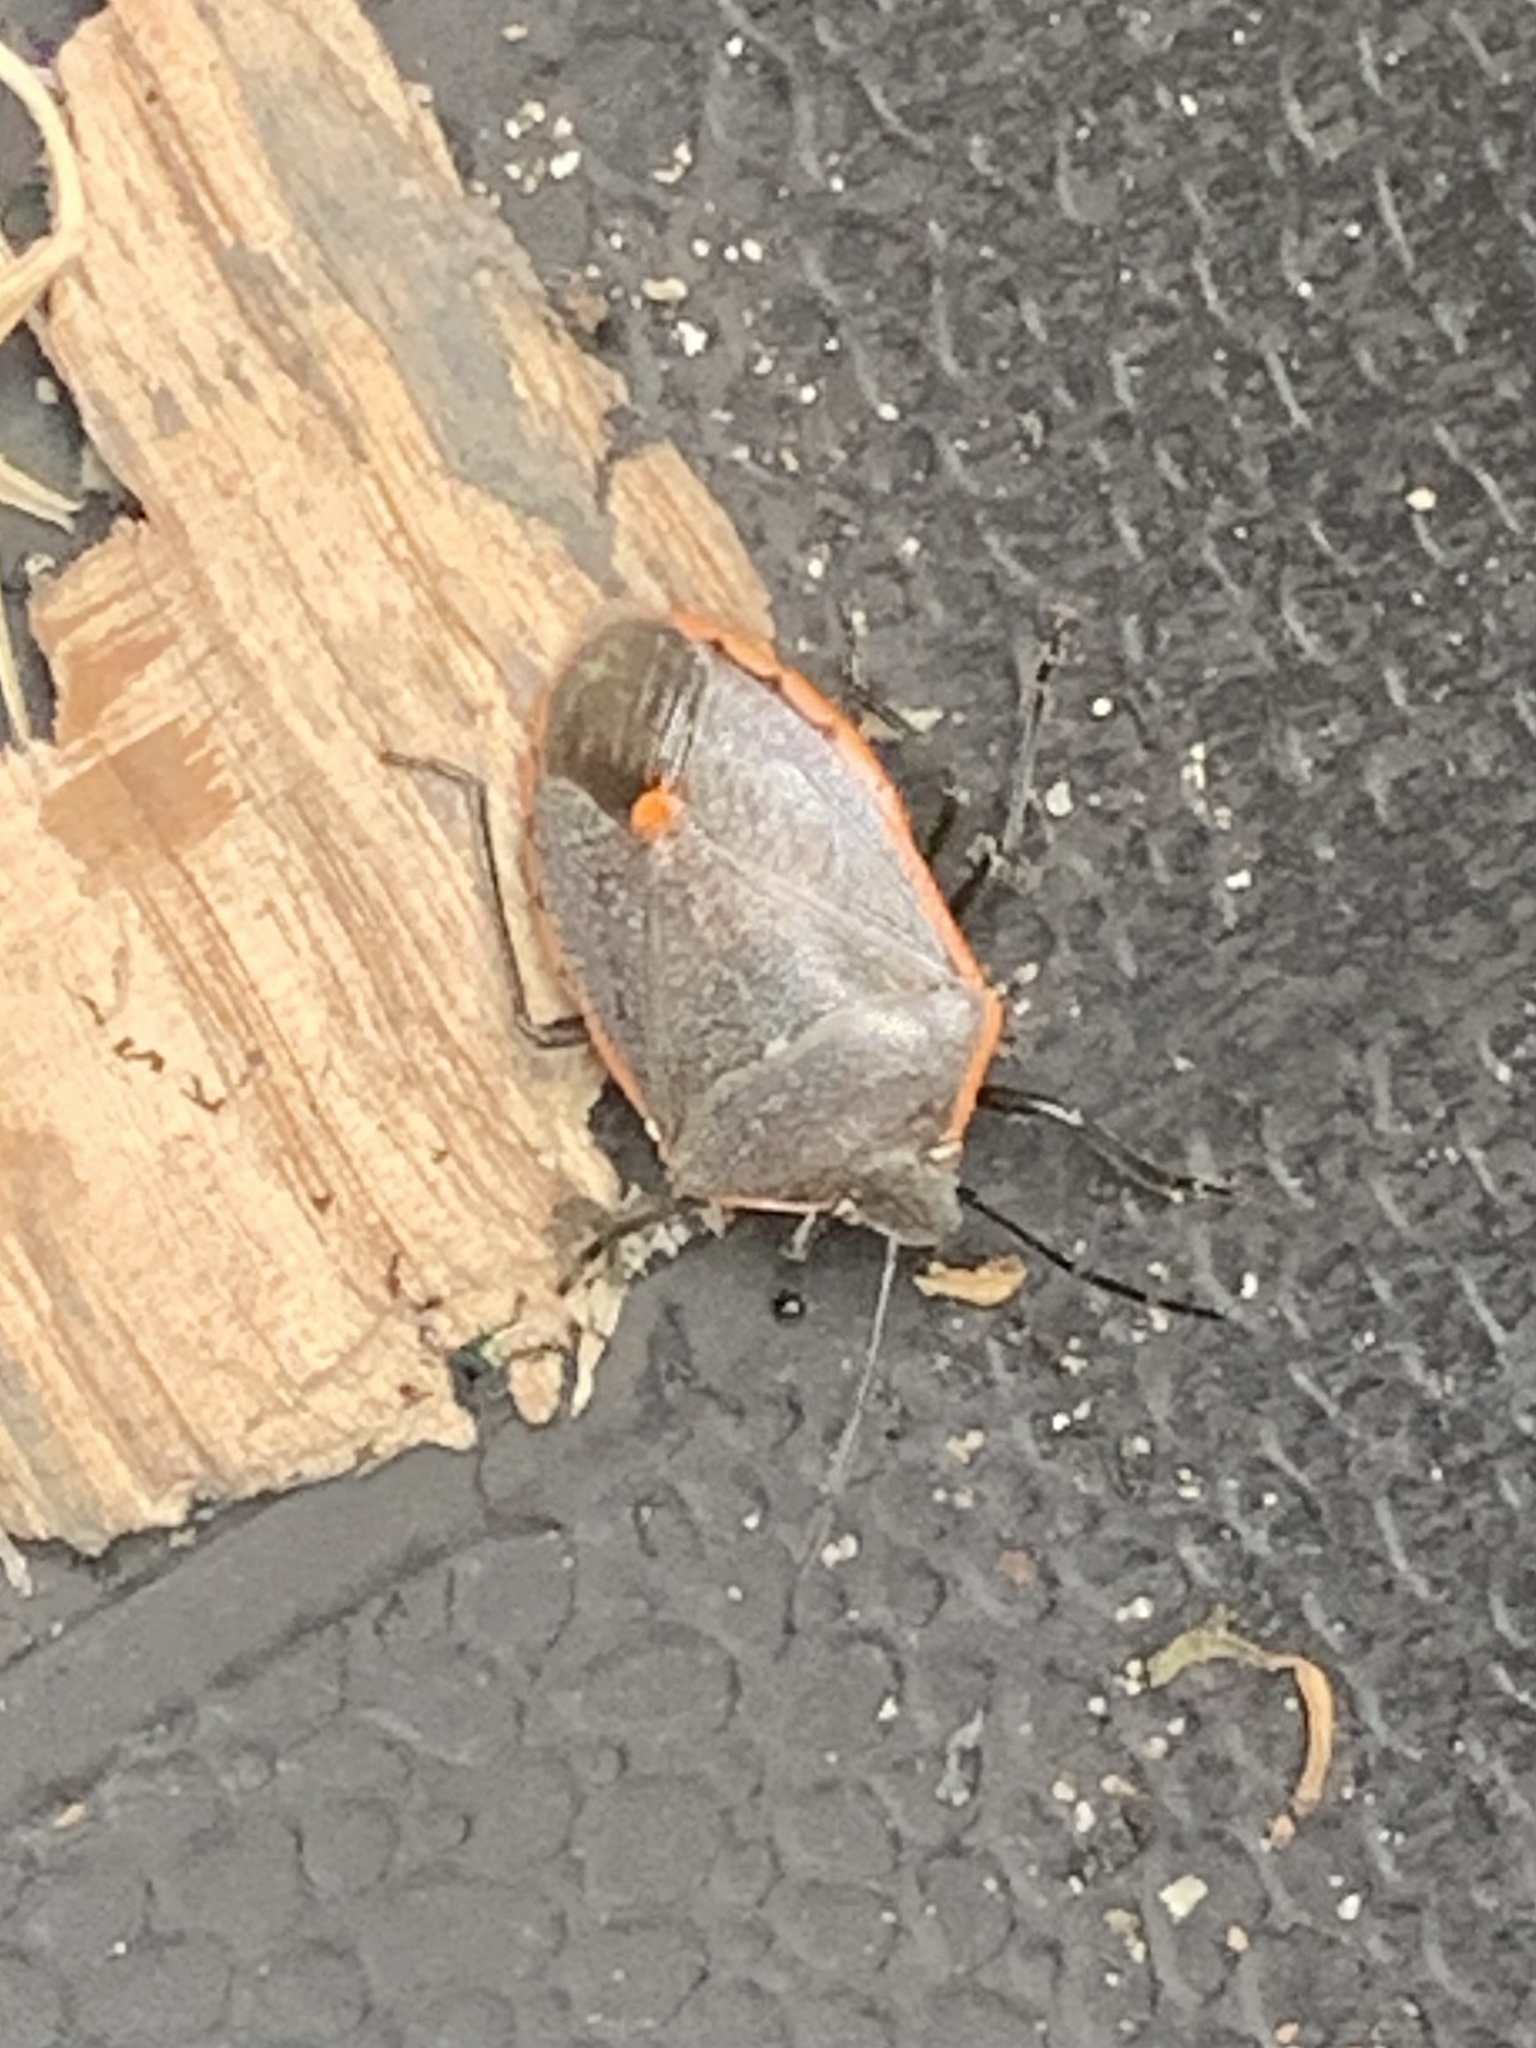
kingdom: Animalia
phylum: Arthropoda
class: Insecta
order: Hemiptera
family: Pentatomidae
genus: Chlorochroa
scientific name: Chlorochroa ligata
